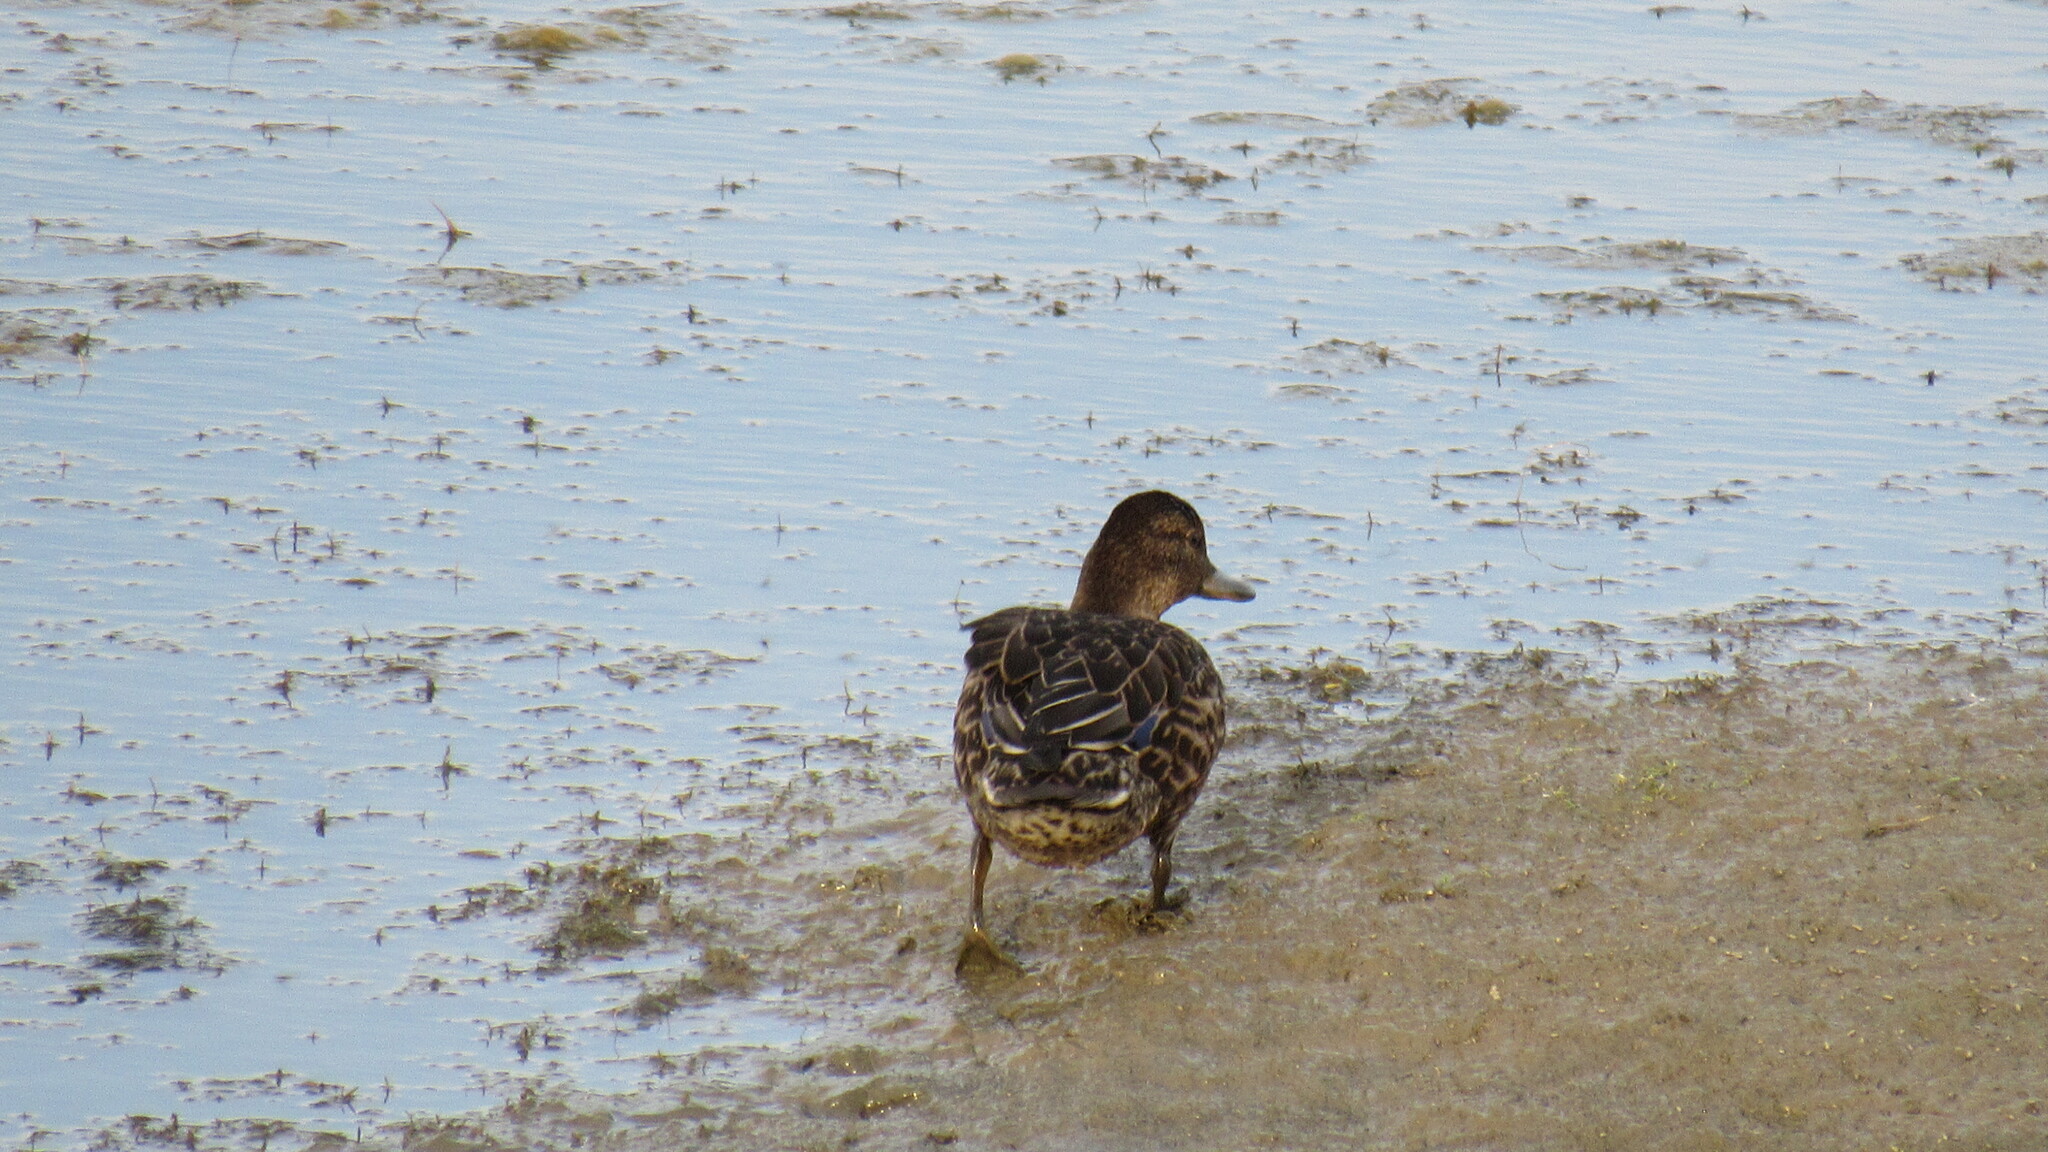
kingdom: Animalia
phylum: Chordata
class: Aves
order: Anseriformes
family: Anatidae
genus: Anas
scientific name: Anas platyrhynchos
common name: Mallard
